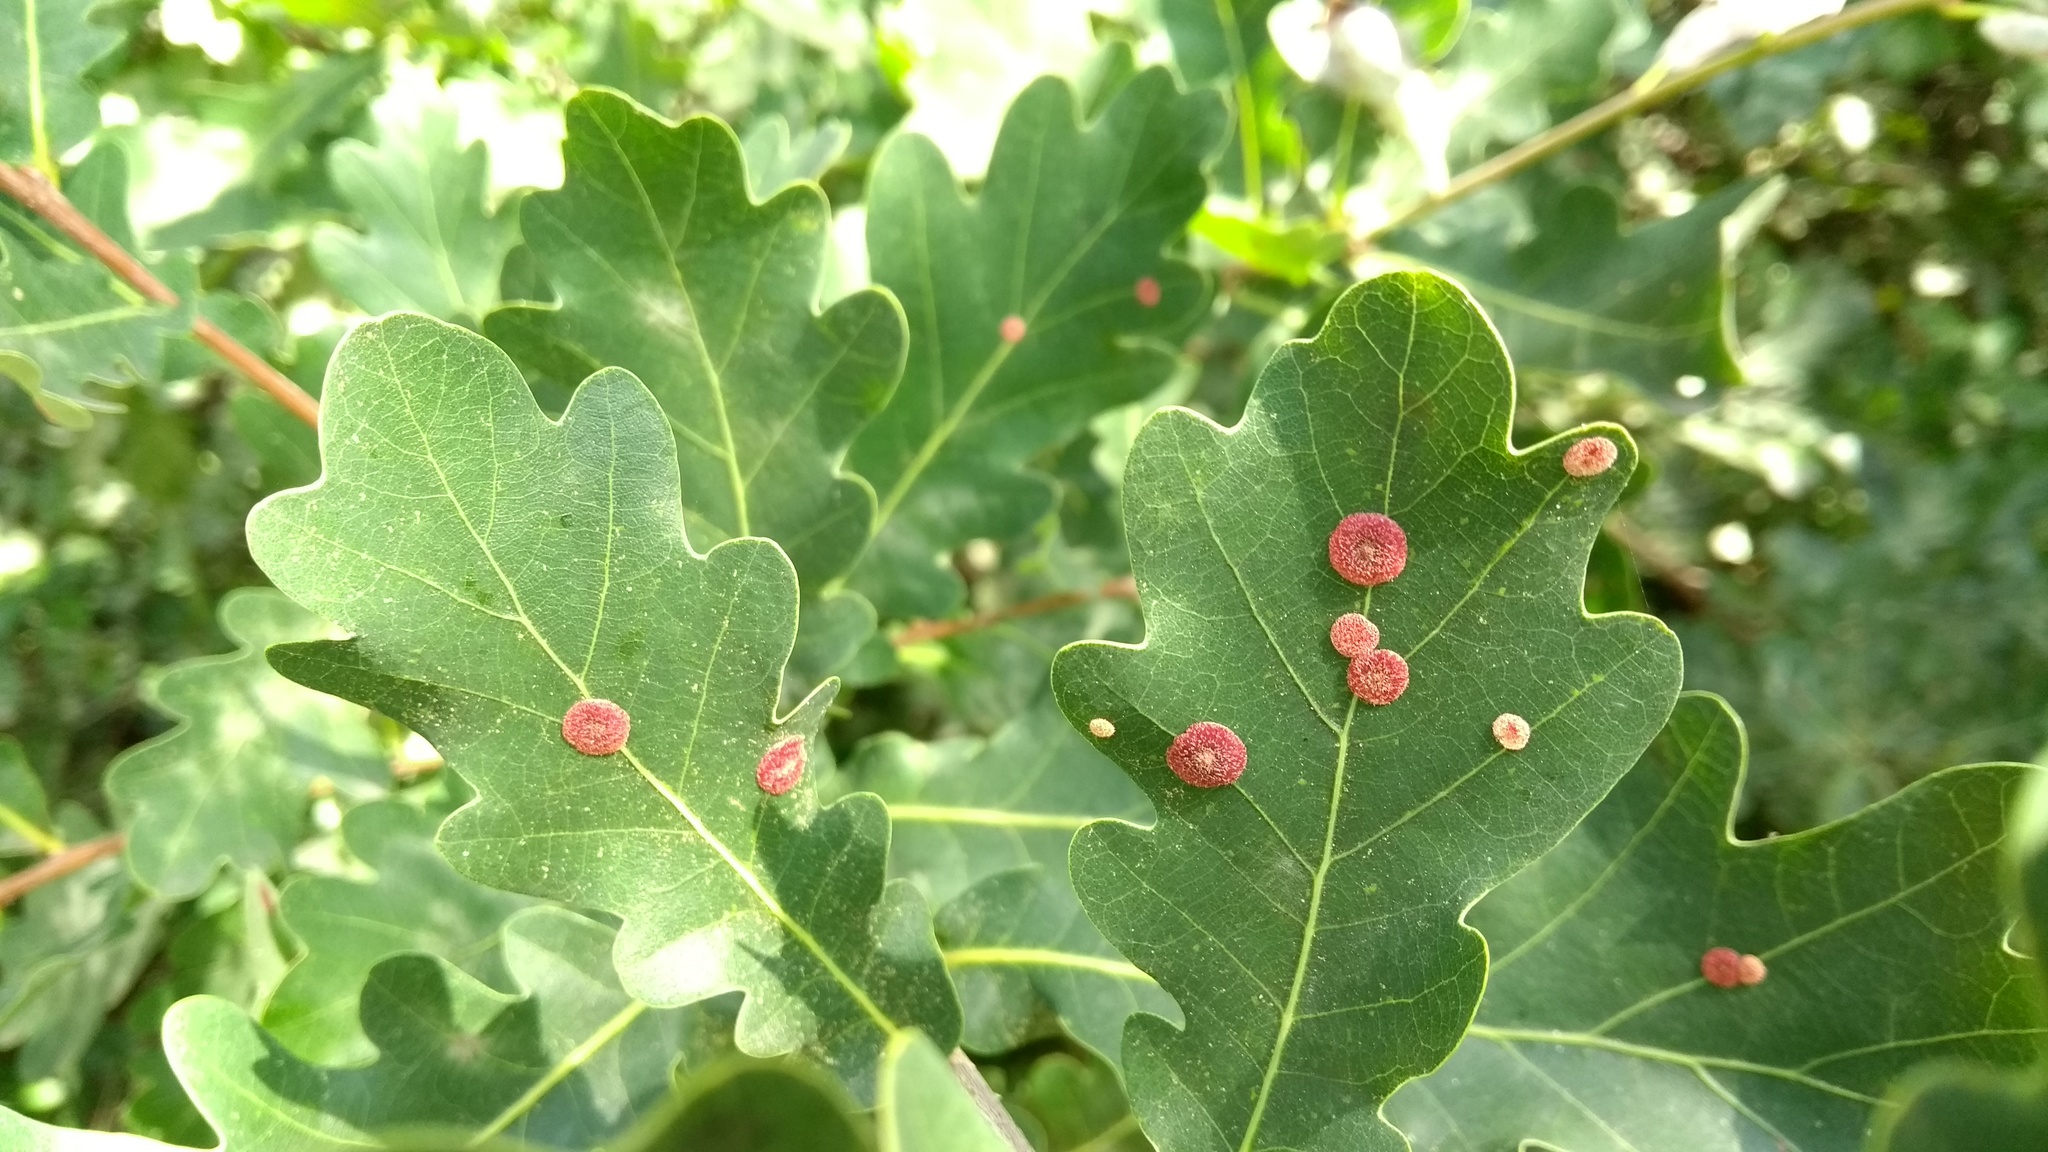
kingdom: Animalia
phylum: Arthropoda
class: Insecta
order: Hymenoptera
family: Cynipidae
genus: Neuroterus
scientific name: Neuroterus quercusbaccarum
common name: Common spangle gall
